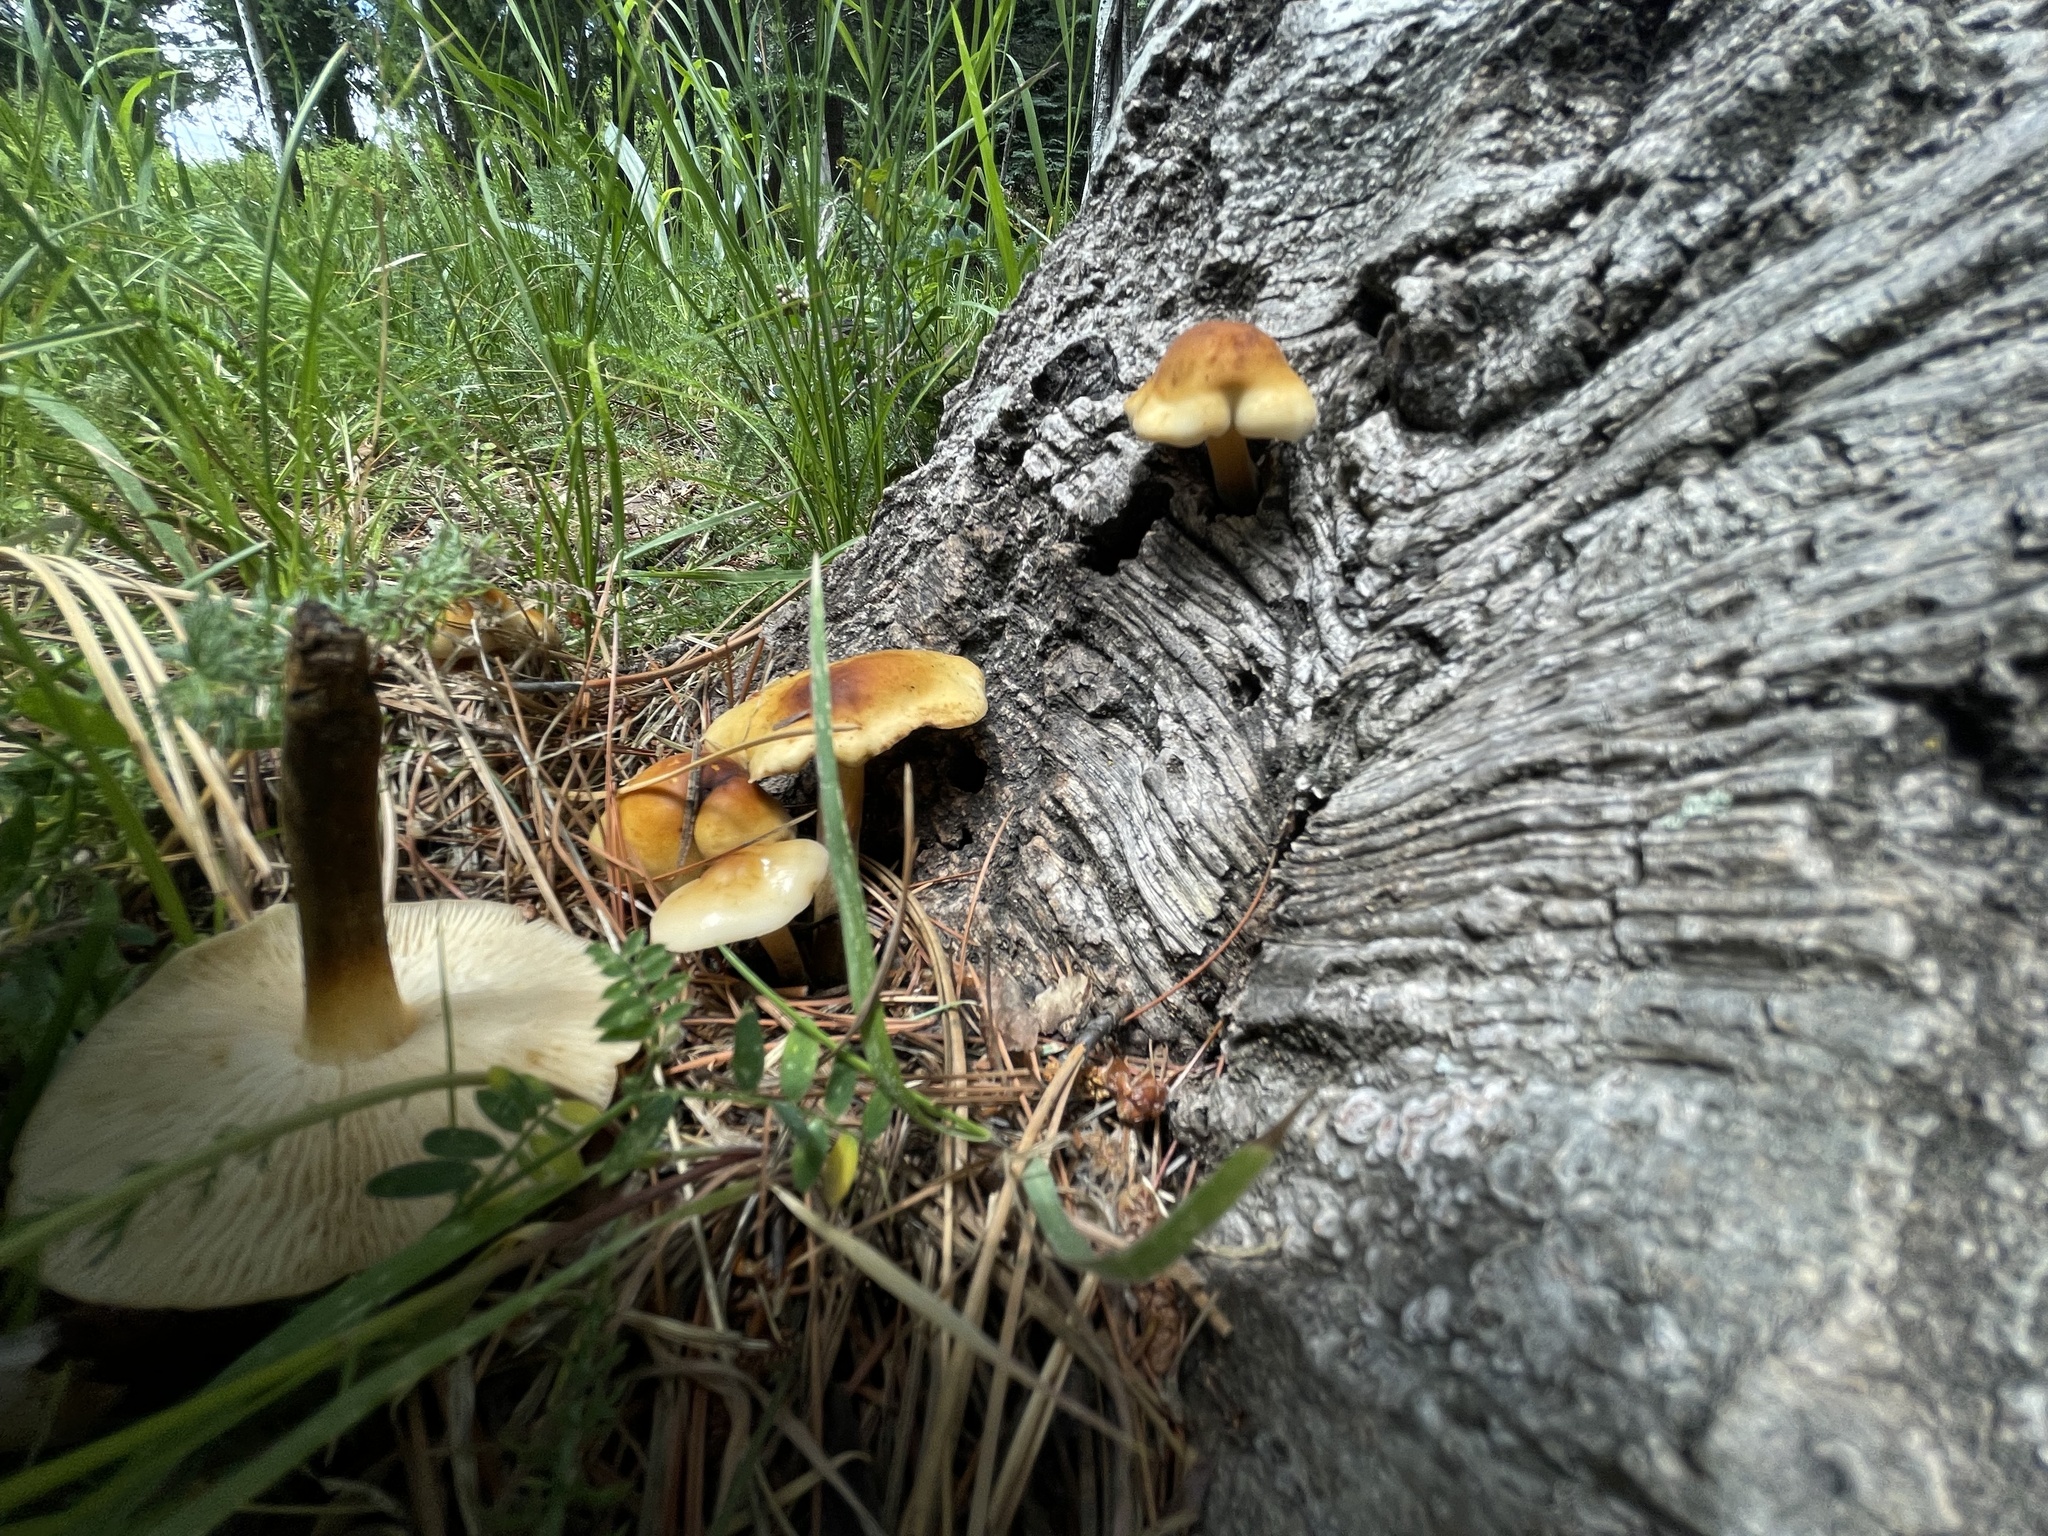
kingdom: Fungi
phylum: Basidiomycota
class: Agaricomycetes
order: Agaricales
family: Physalacriaceae
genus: Flammulina
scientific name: Flammulina populicola
